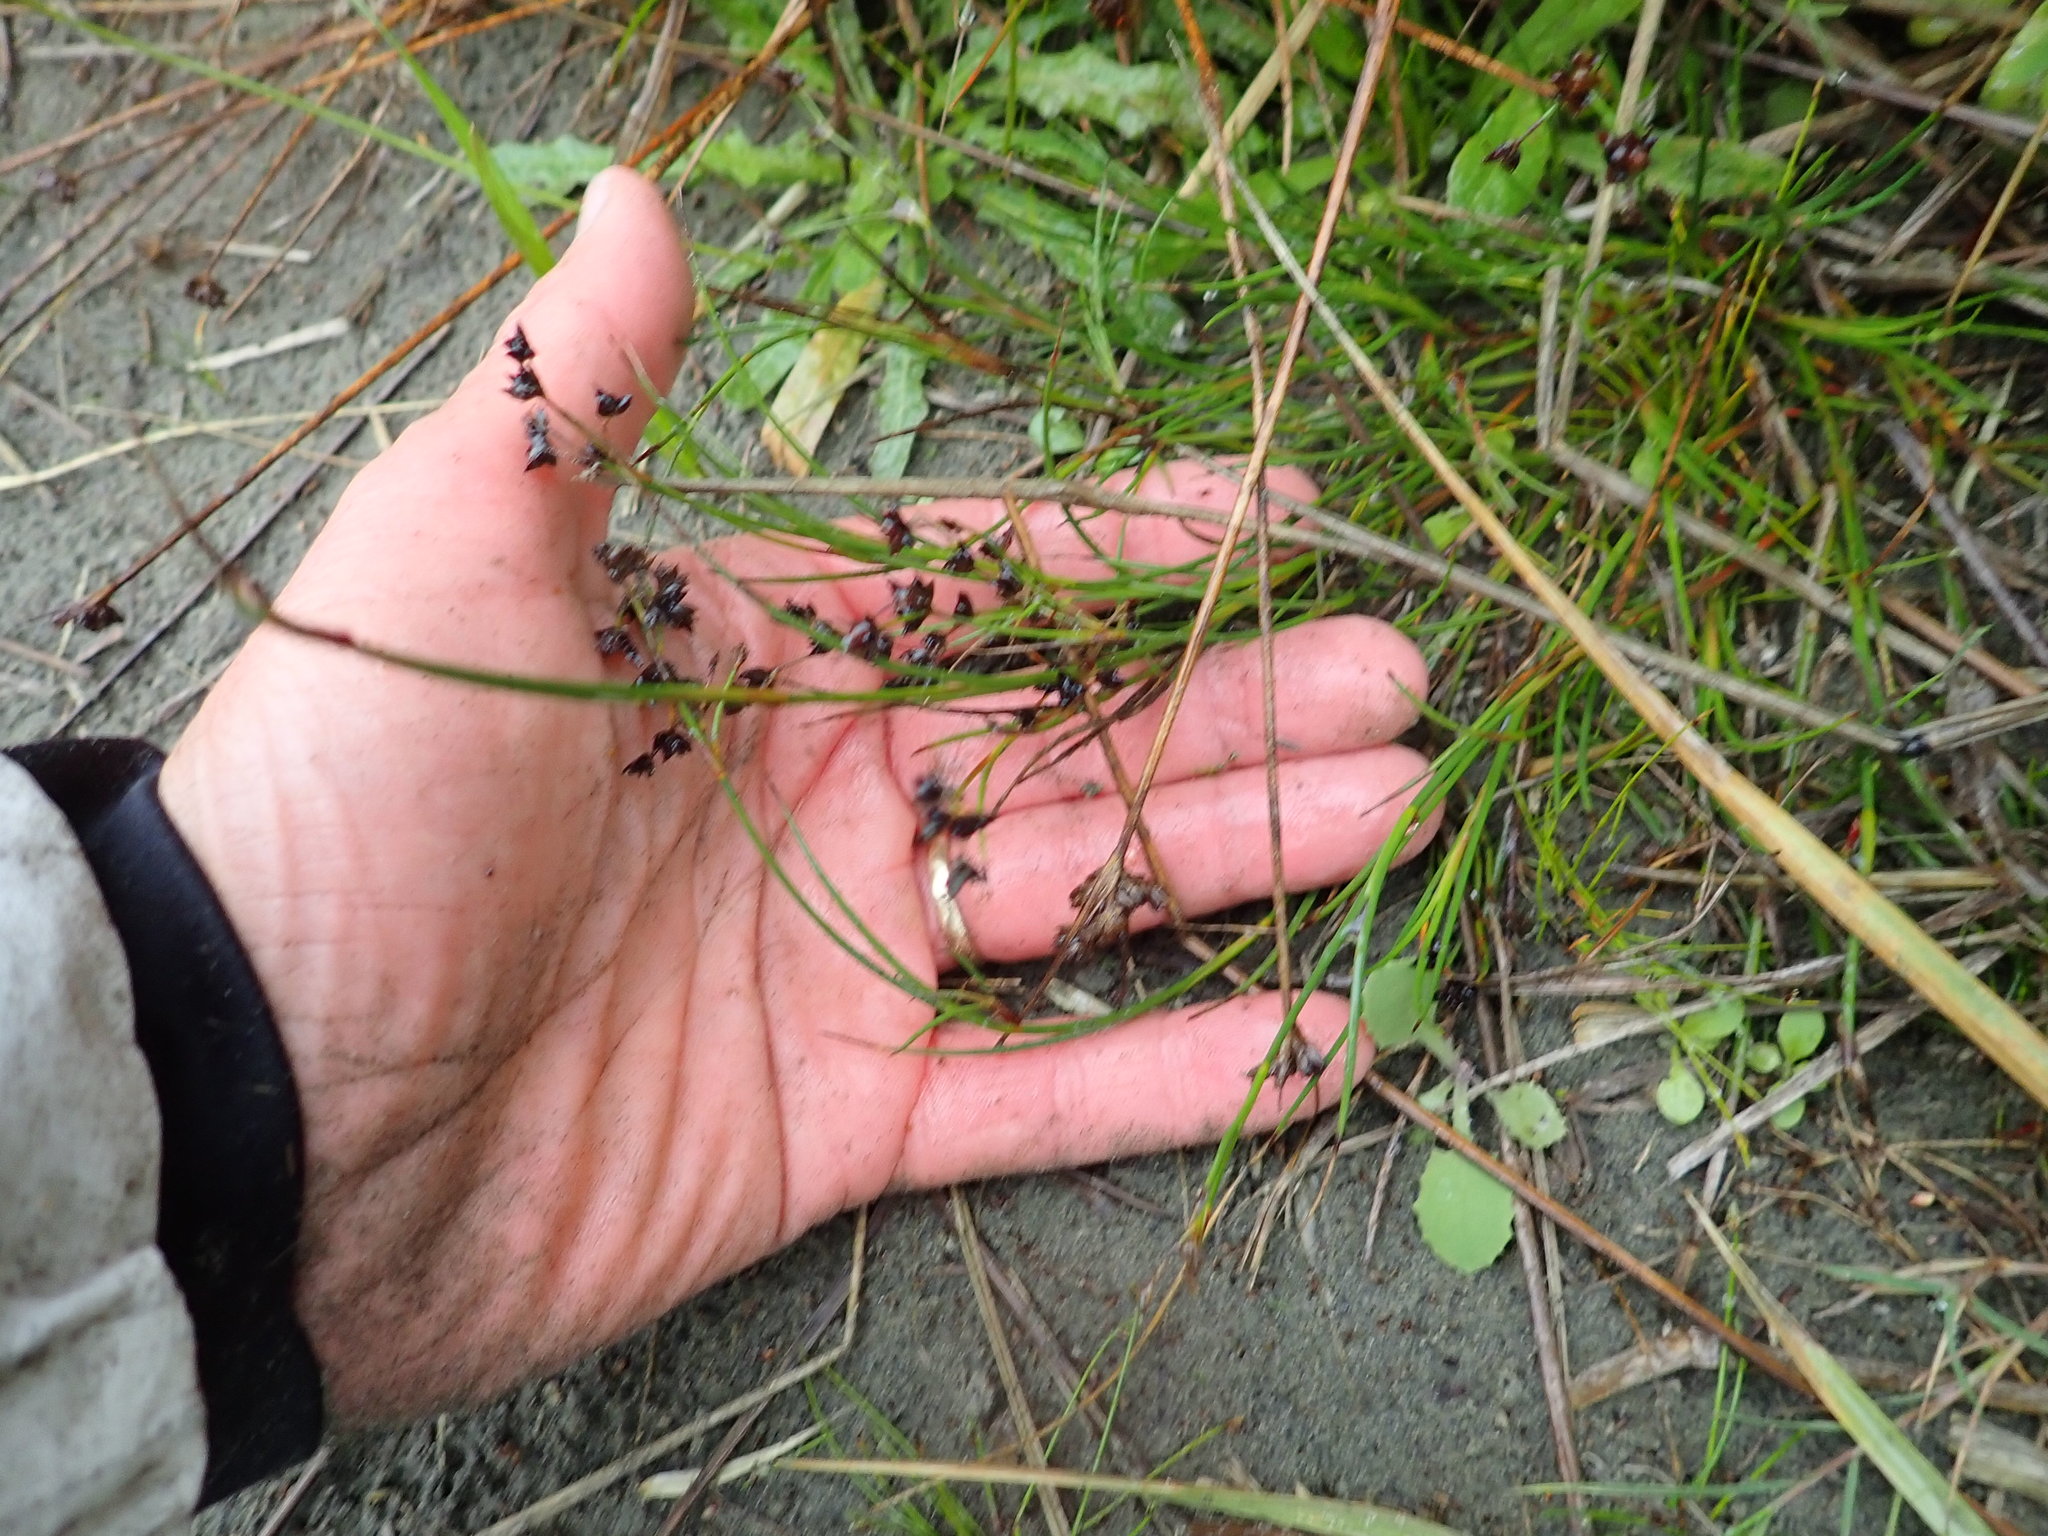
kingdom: Plantae
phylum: Tracheophyta
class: Liliopsida
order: Poales
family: Juncaceae
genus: Juncus
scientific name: Juncus articulatus
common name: Jointed rush
